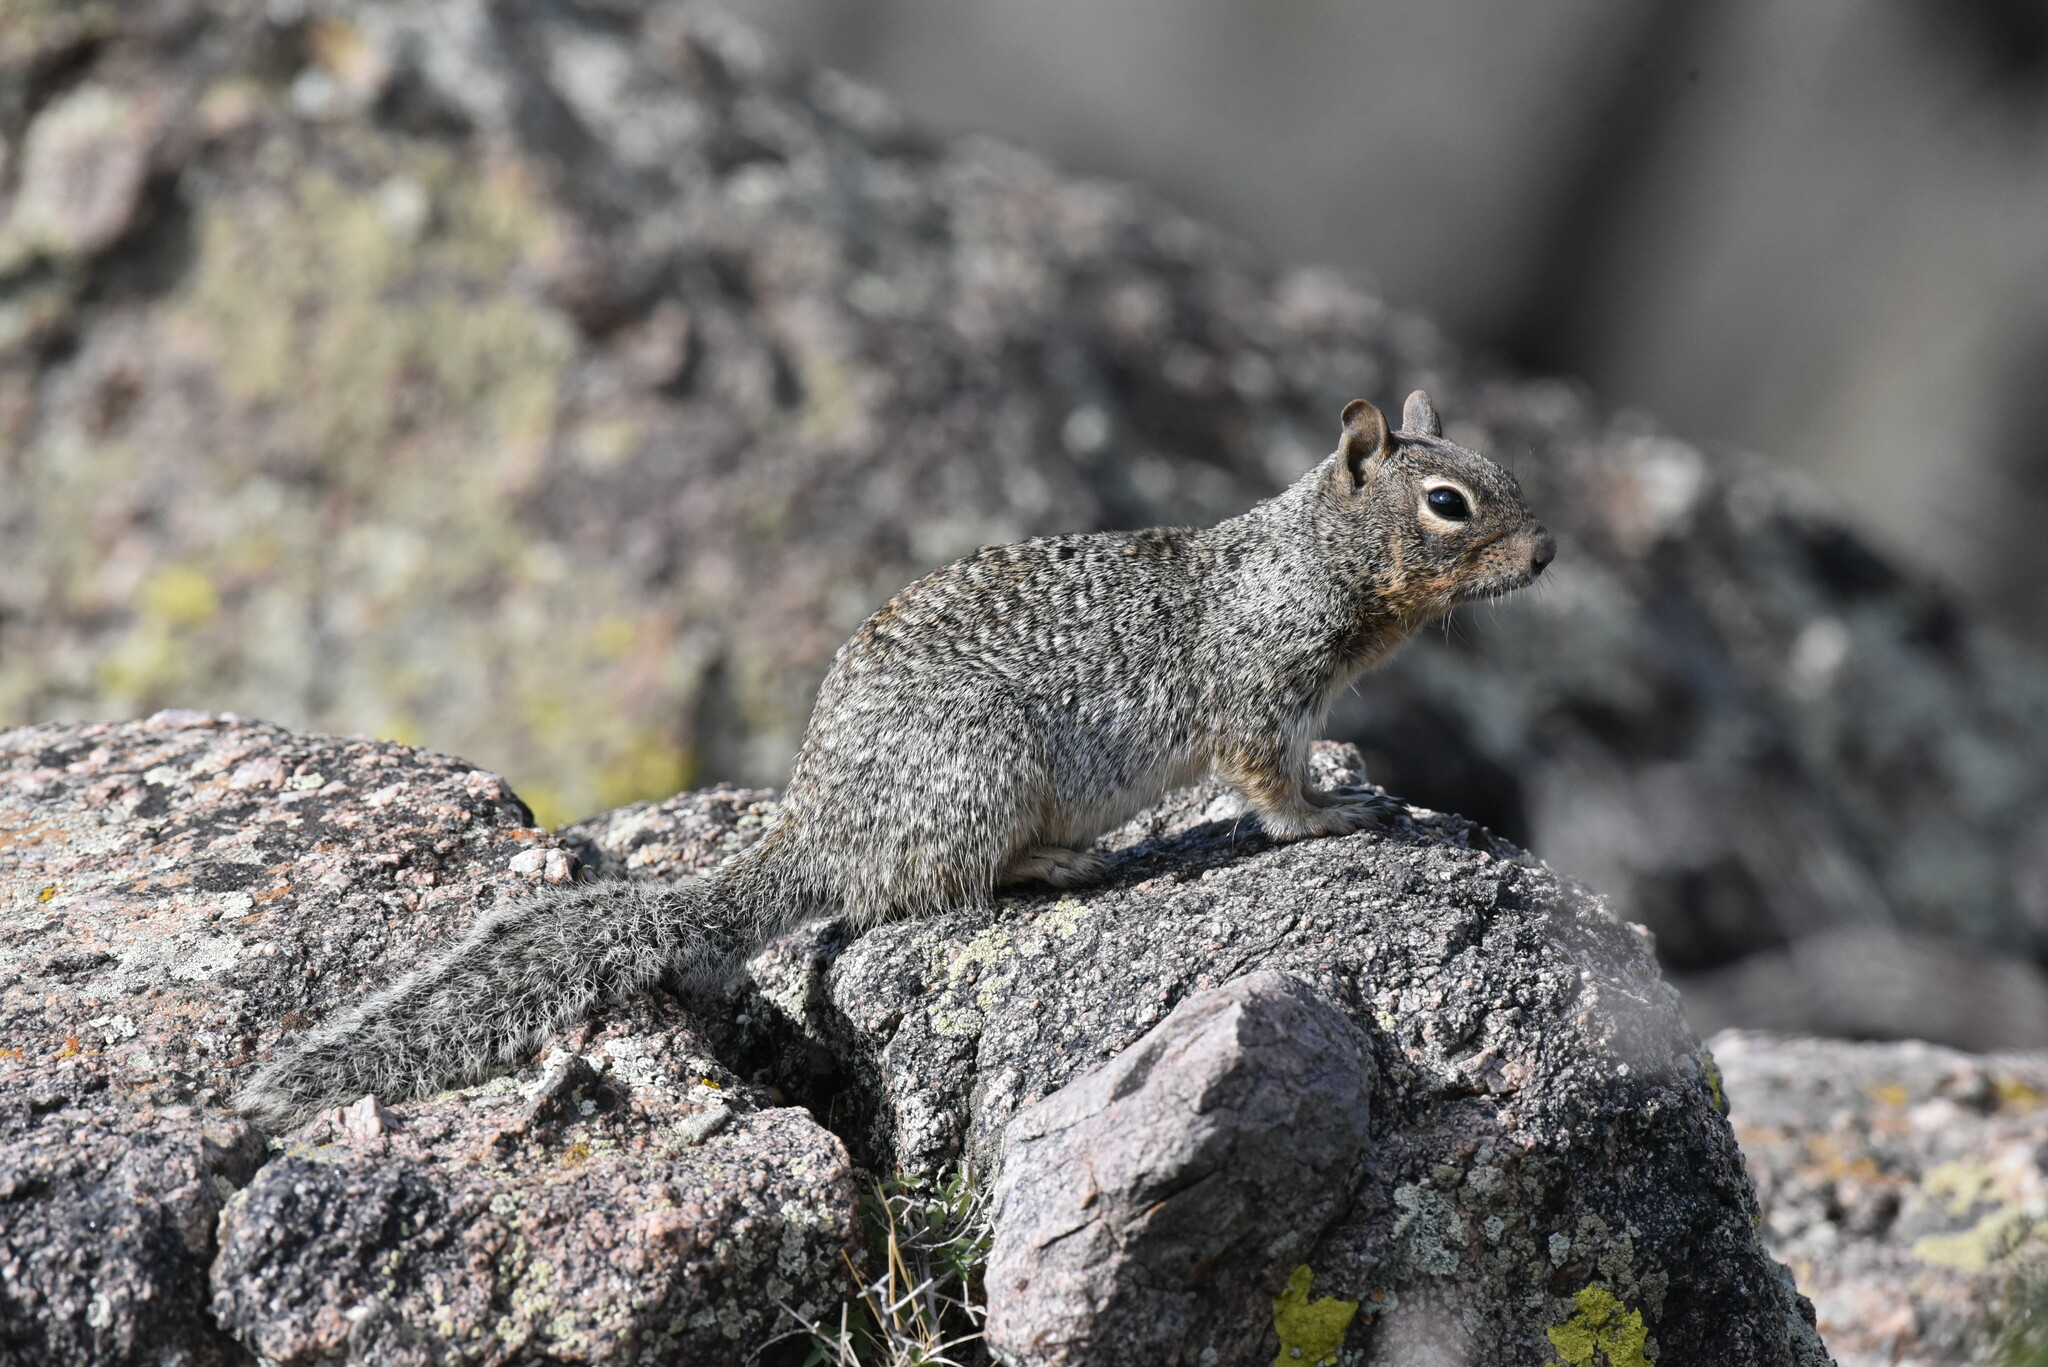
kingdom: Animalia
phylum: Chordata
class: Mammalia
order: Rodentia
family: Sciuridae
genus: Otospermophilus
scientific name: Otospermophilus variegatus
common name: Rock squirrel
